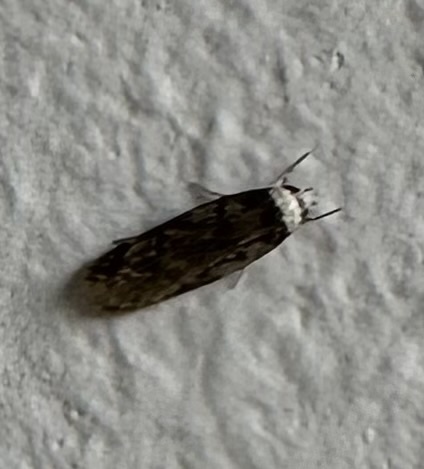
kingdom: Animalia
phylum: Arthropoda
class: Insecta
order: Lepidoptera
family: Oecophoridae
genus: Endrosis
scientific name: Endrosis sarcitrella
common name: White-shouldered house moth
